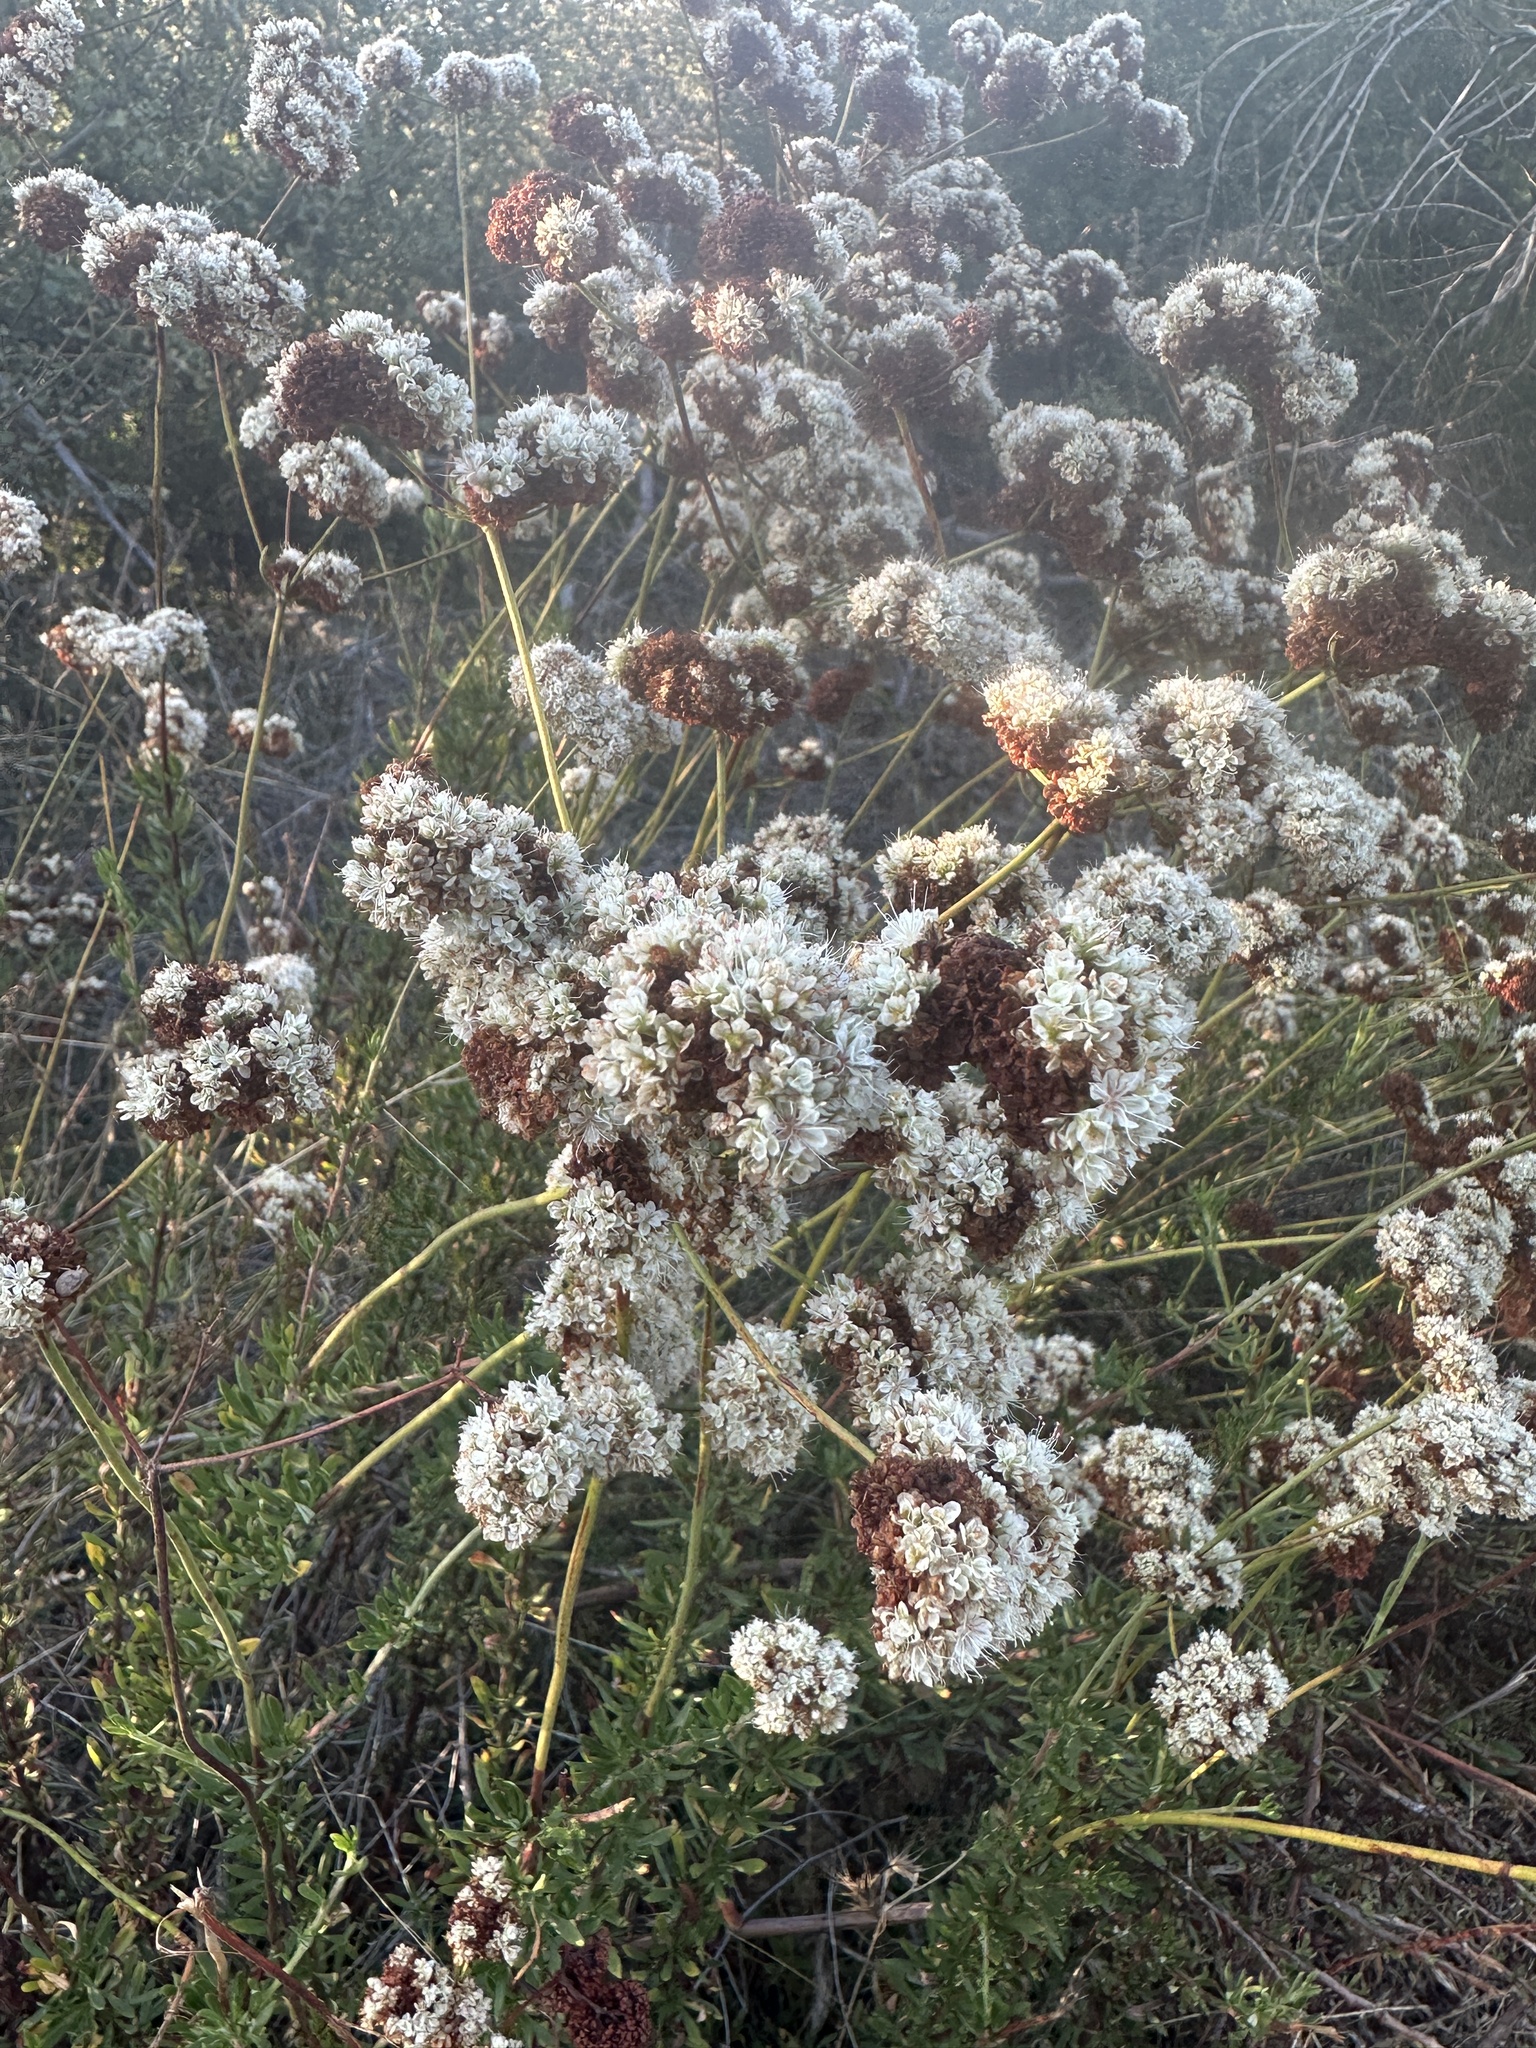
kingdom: Plantae
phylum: Tracheophyta
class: Magnoliopsida
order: Caryophyllales
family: Polygonaceae
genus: Eriogonum
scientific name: Eriogonum fasciculatum
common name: California wild buckwheat
